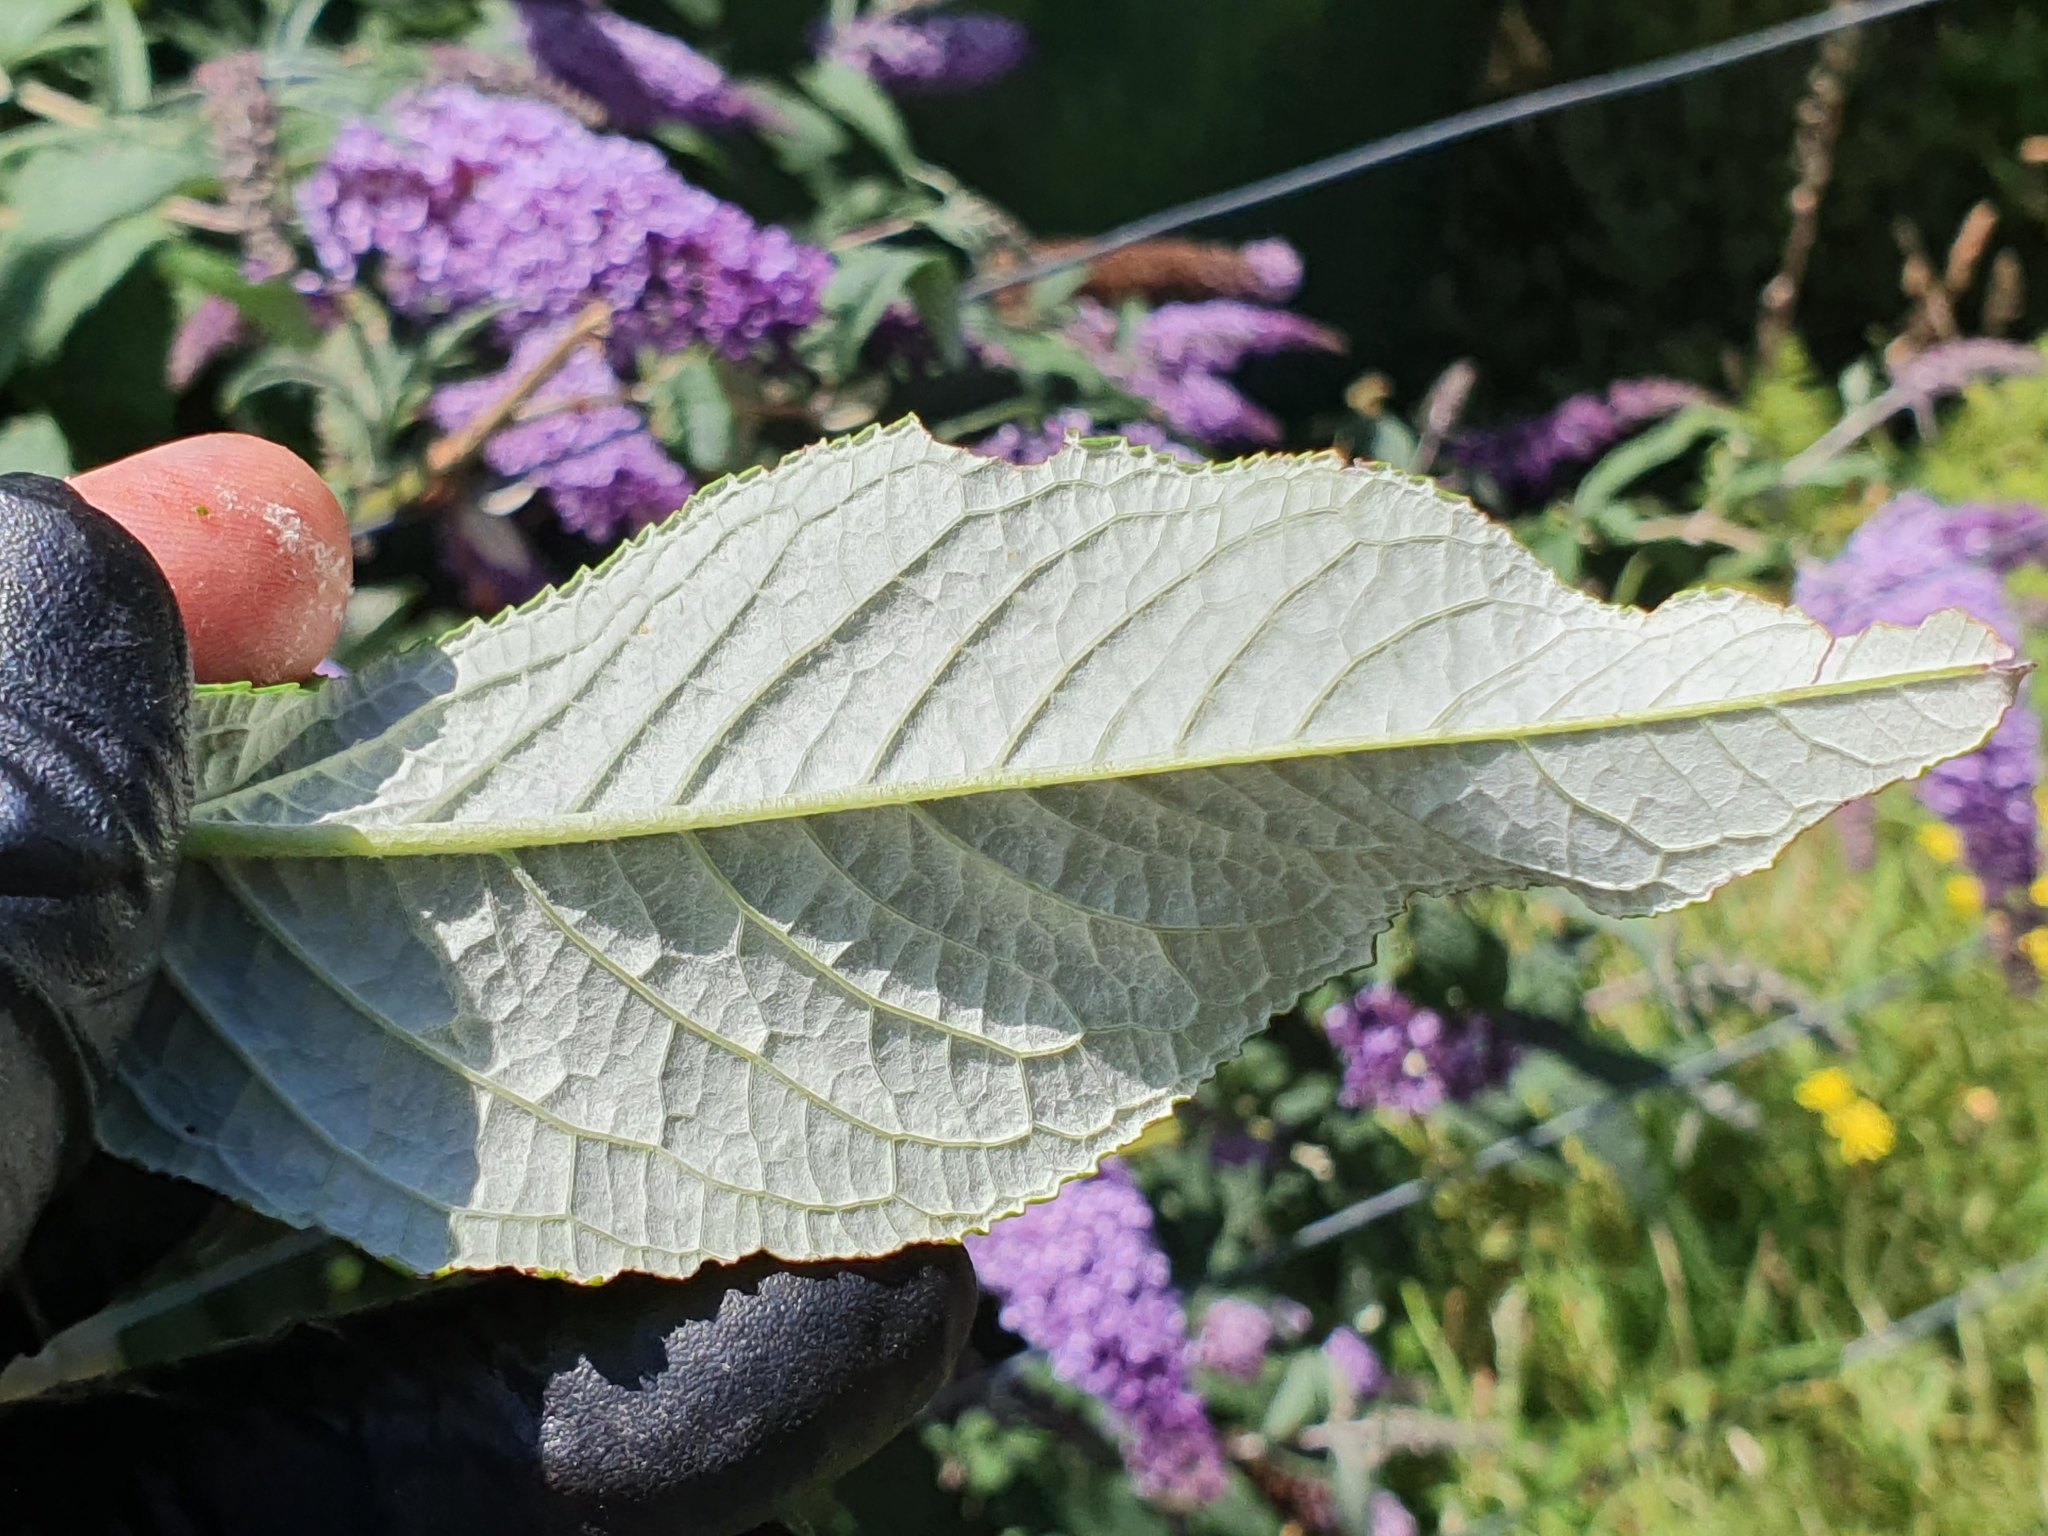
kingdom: Plantae
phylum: Tracheophyta
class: Magnoliopsida
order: Lamiales
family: Scrophulariaceae
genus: Buddleja
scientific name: Buddleja davidii
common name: Butterfly-bush
